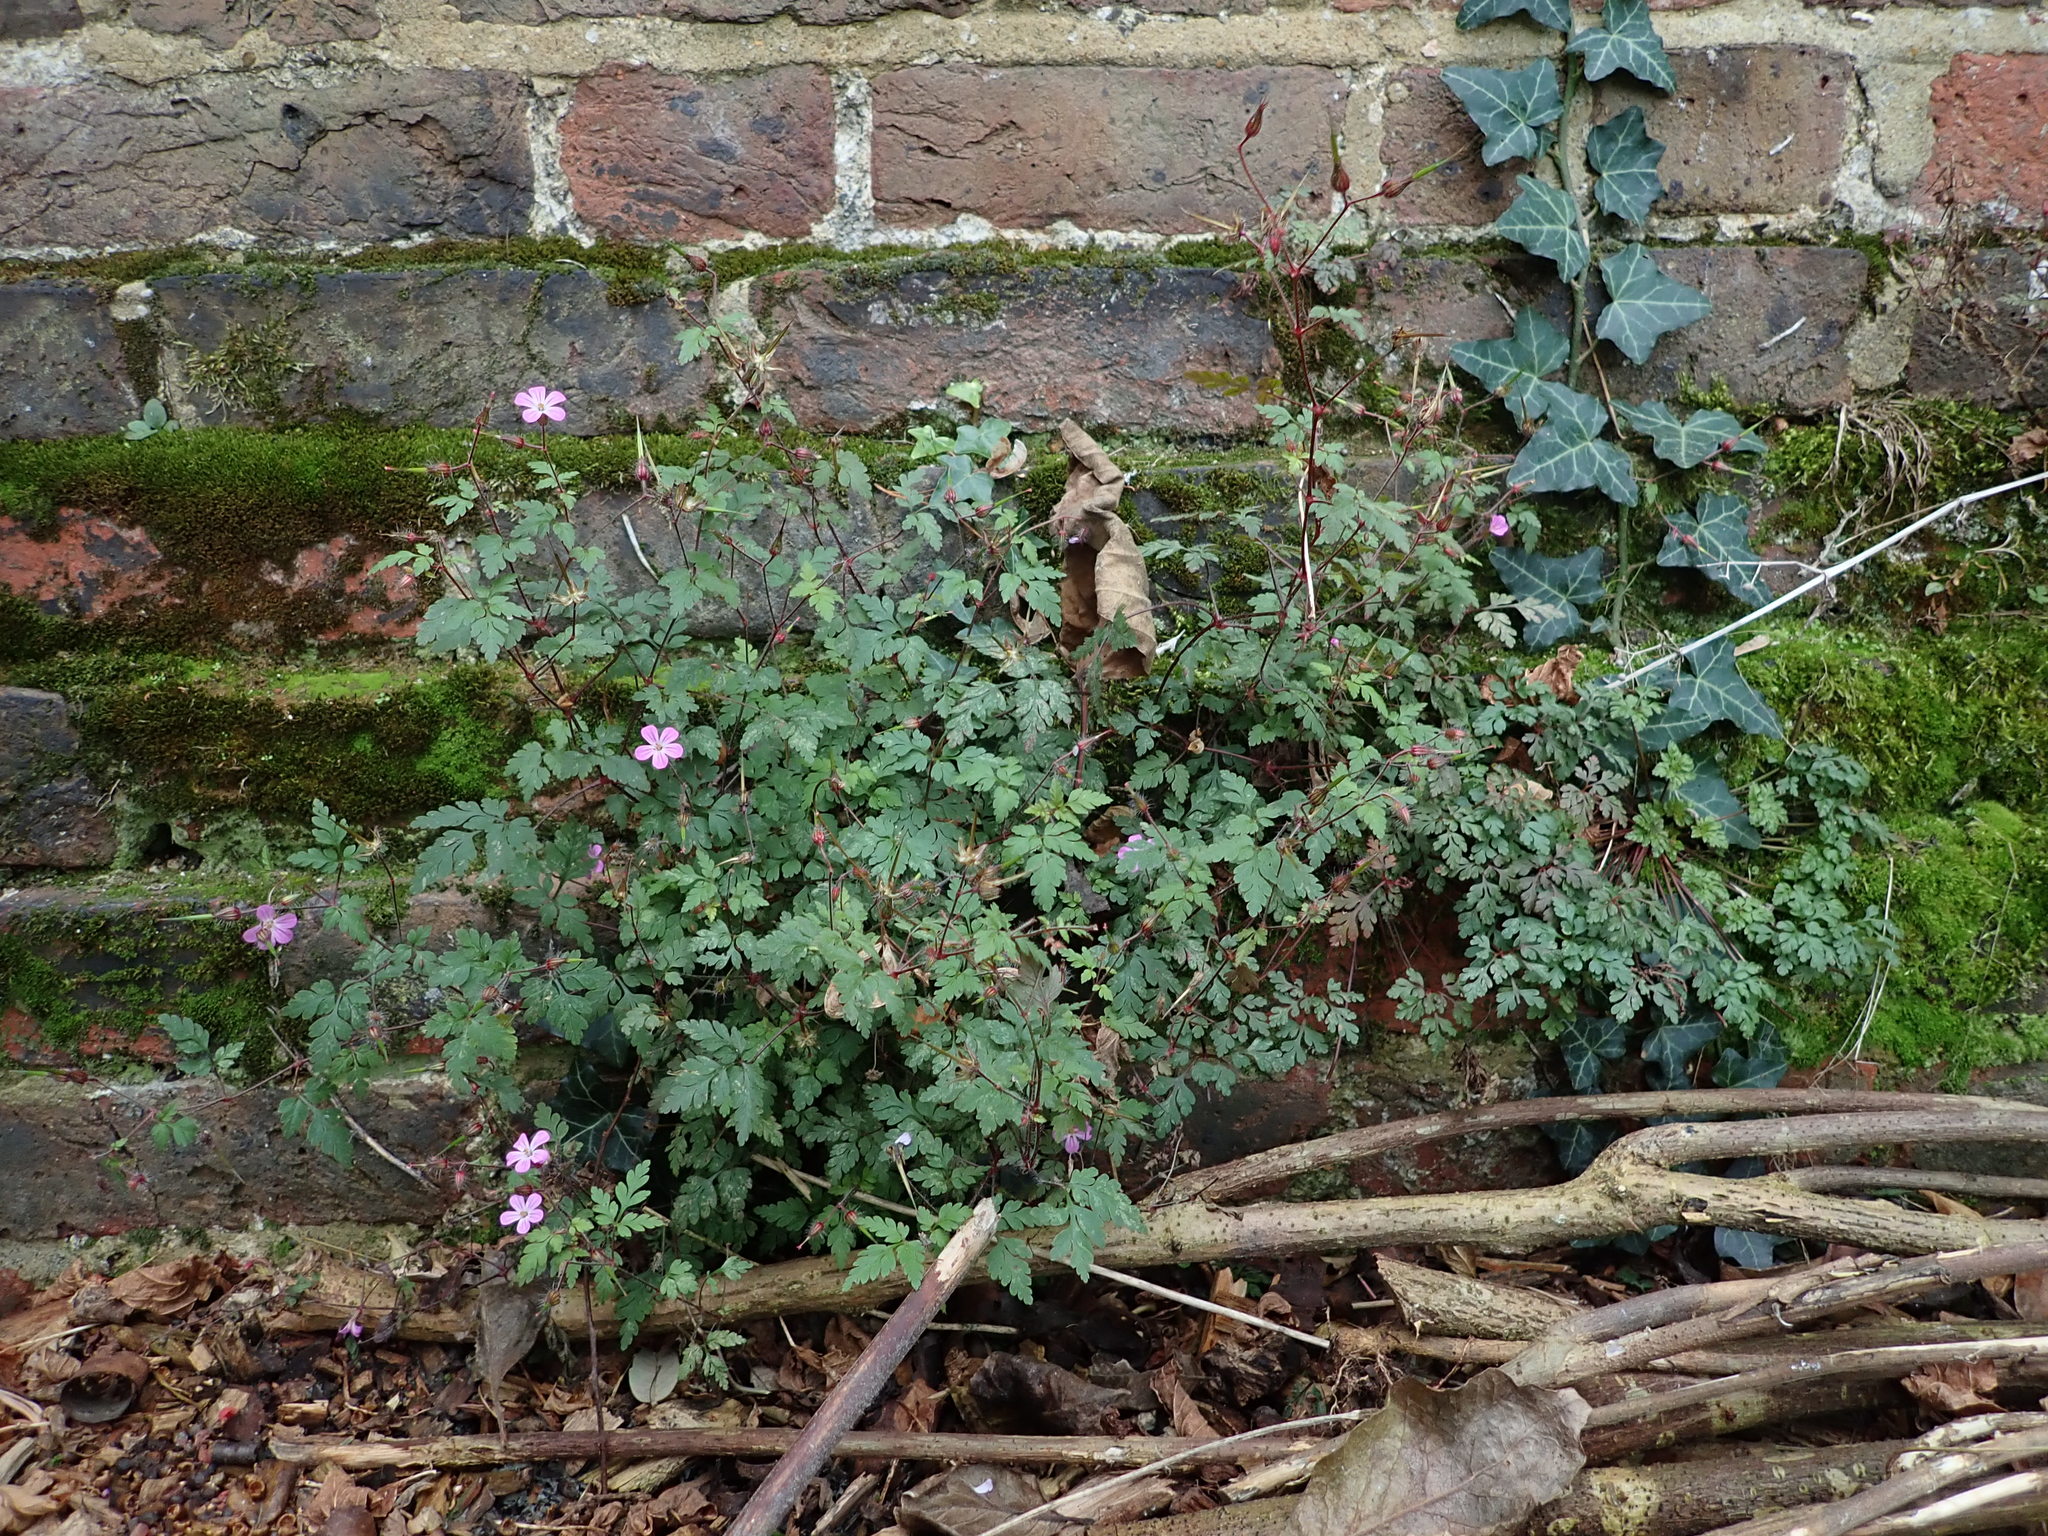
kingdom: Plantae
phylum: Tracheophyta
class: Magnoliopsida
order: Geraniales
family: Geraniaceae
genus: Geranium
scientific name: Geranium robertianum
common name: Herb-robert
